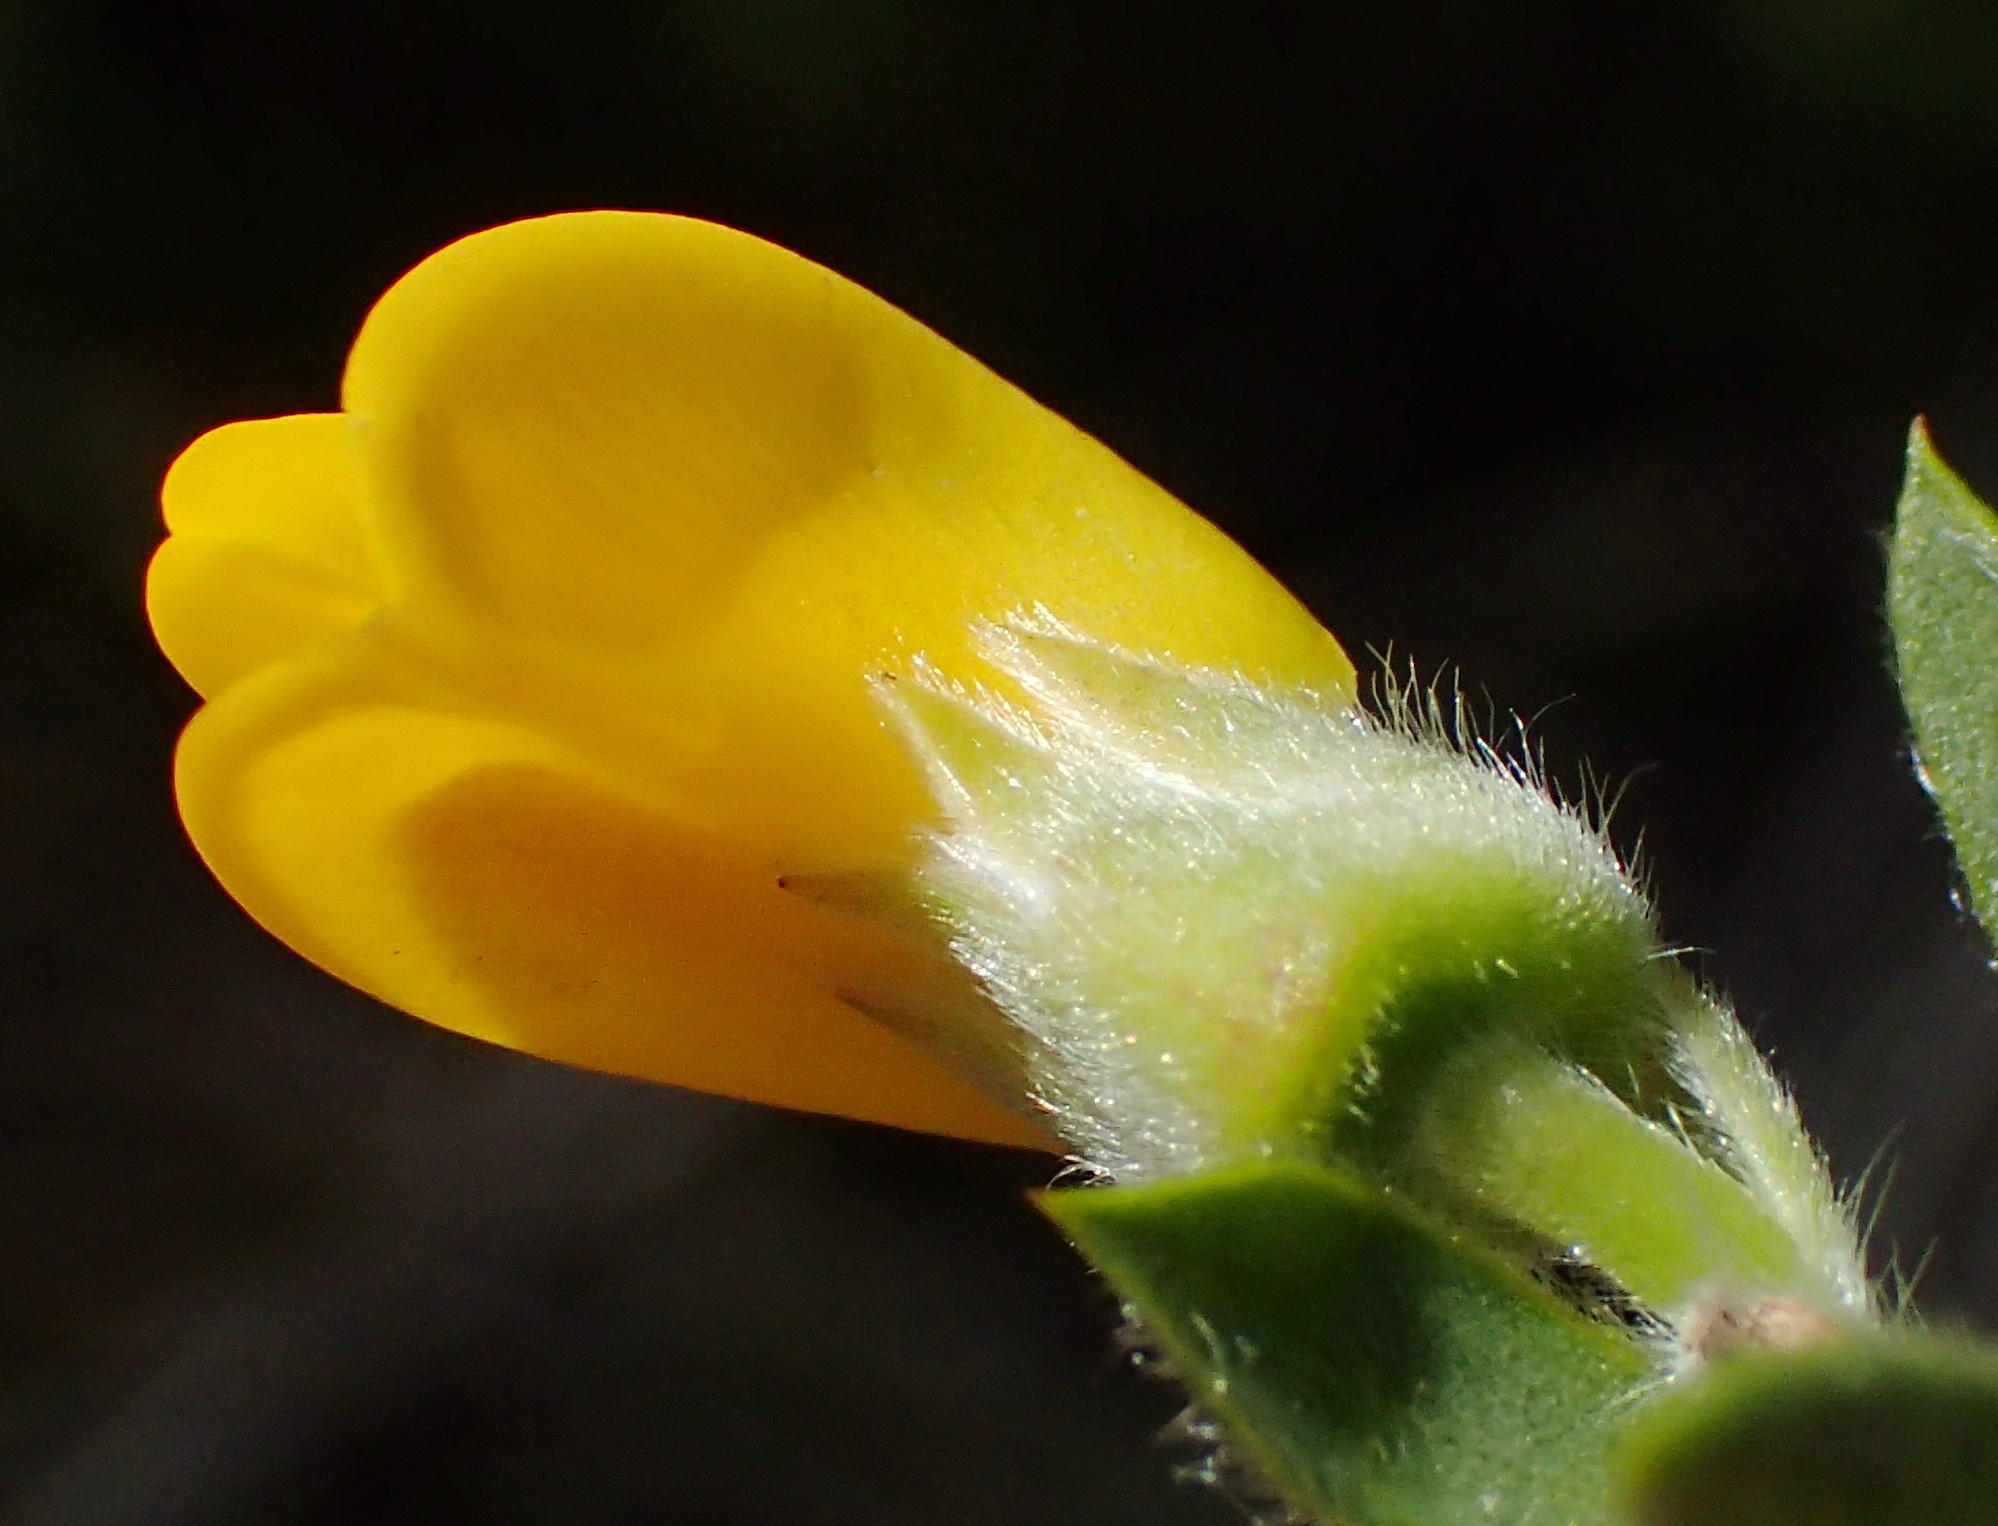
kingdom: Plantae
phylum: Tracheophyta
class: Magnoliopsida
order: Fabales
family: Fabaceae
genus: Liparia
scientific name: Liparia racemosa
